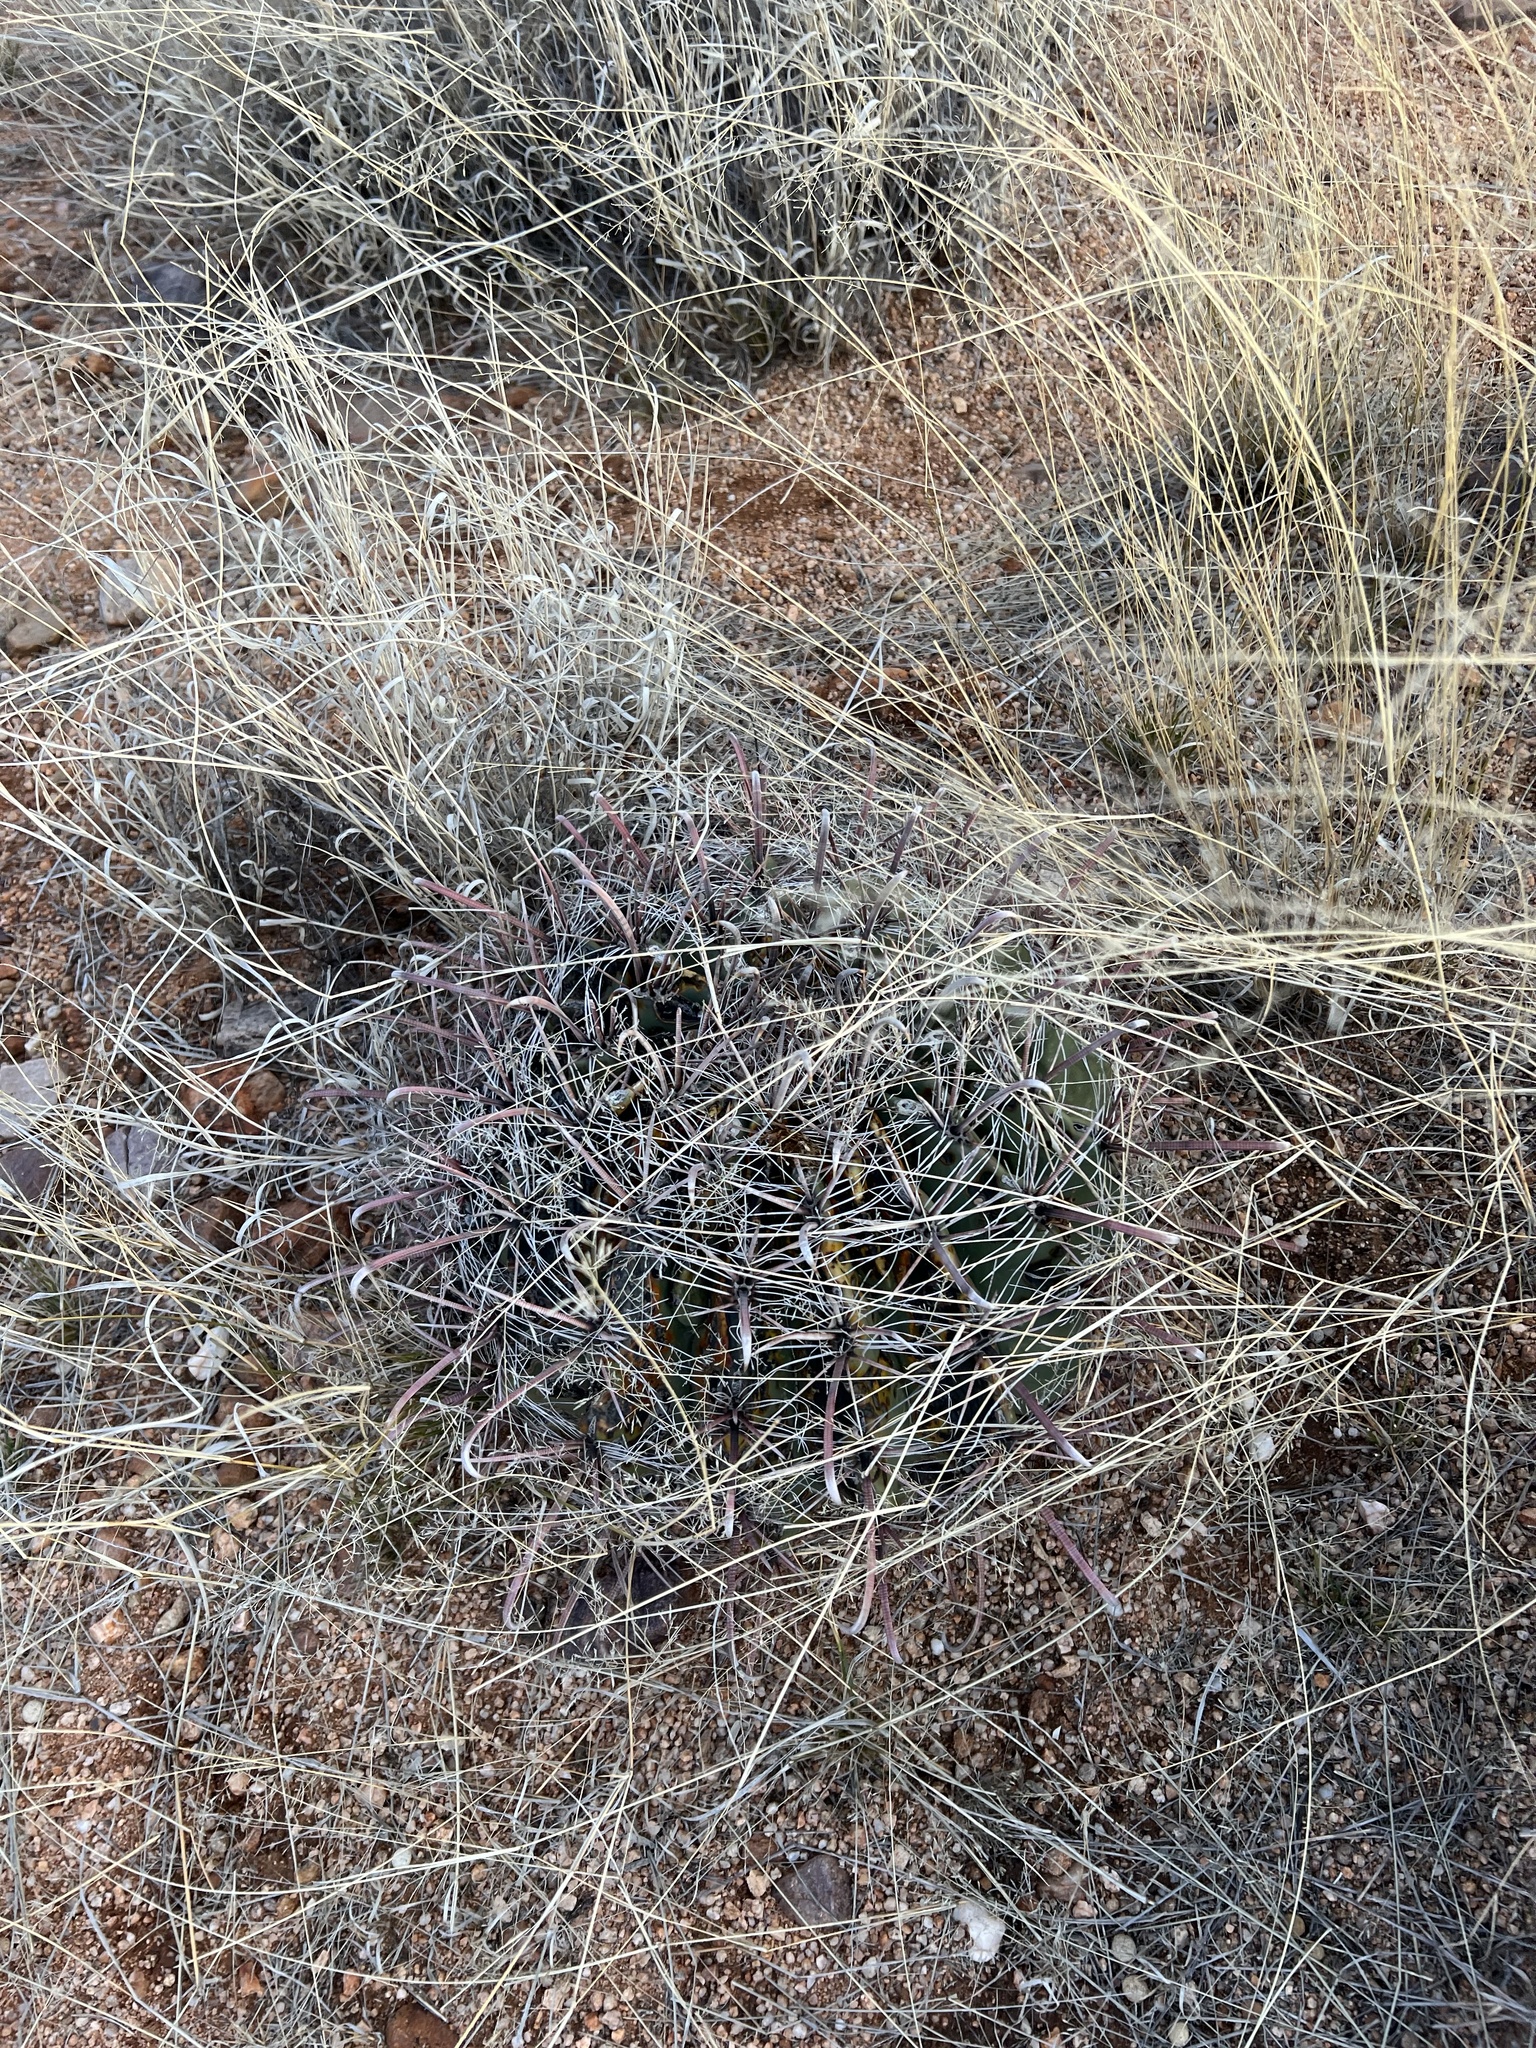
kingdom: Plantae
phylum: Tracheophyta
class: Magnoliopsida
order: Caryophyllales
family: Cactaceae
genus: Ferocactus
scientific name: Ferocactus wislizeni
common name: Candy barrel cactus
